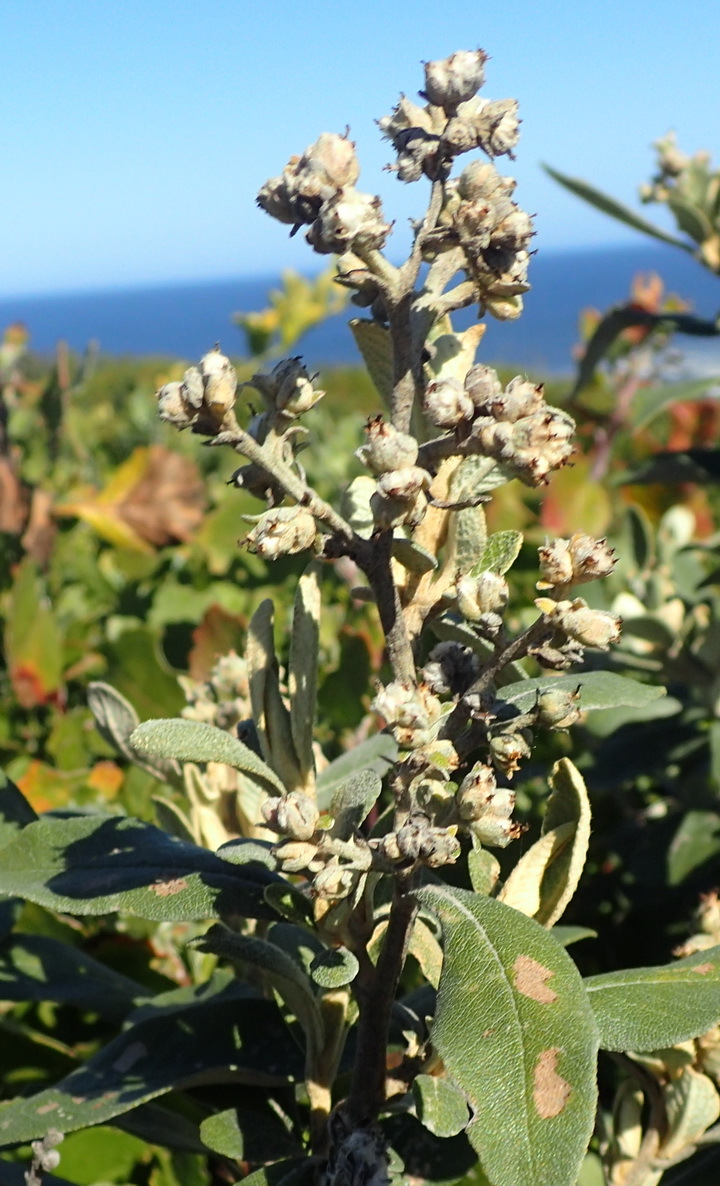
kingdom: Plantae
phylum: Tracheophyta
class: Magnoliopsida
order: Asterales
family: Asteraceae
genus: Tarchonanthus
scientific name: Tarchonanthus littoralis
